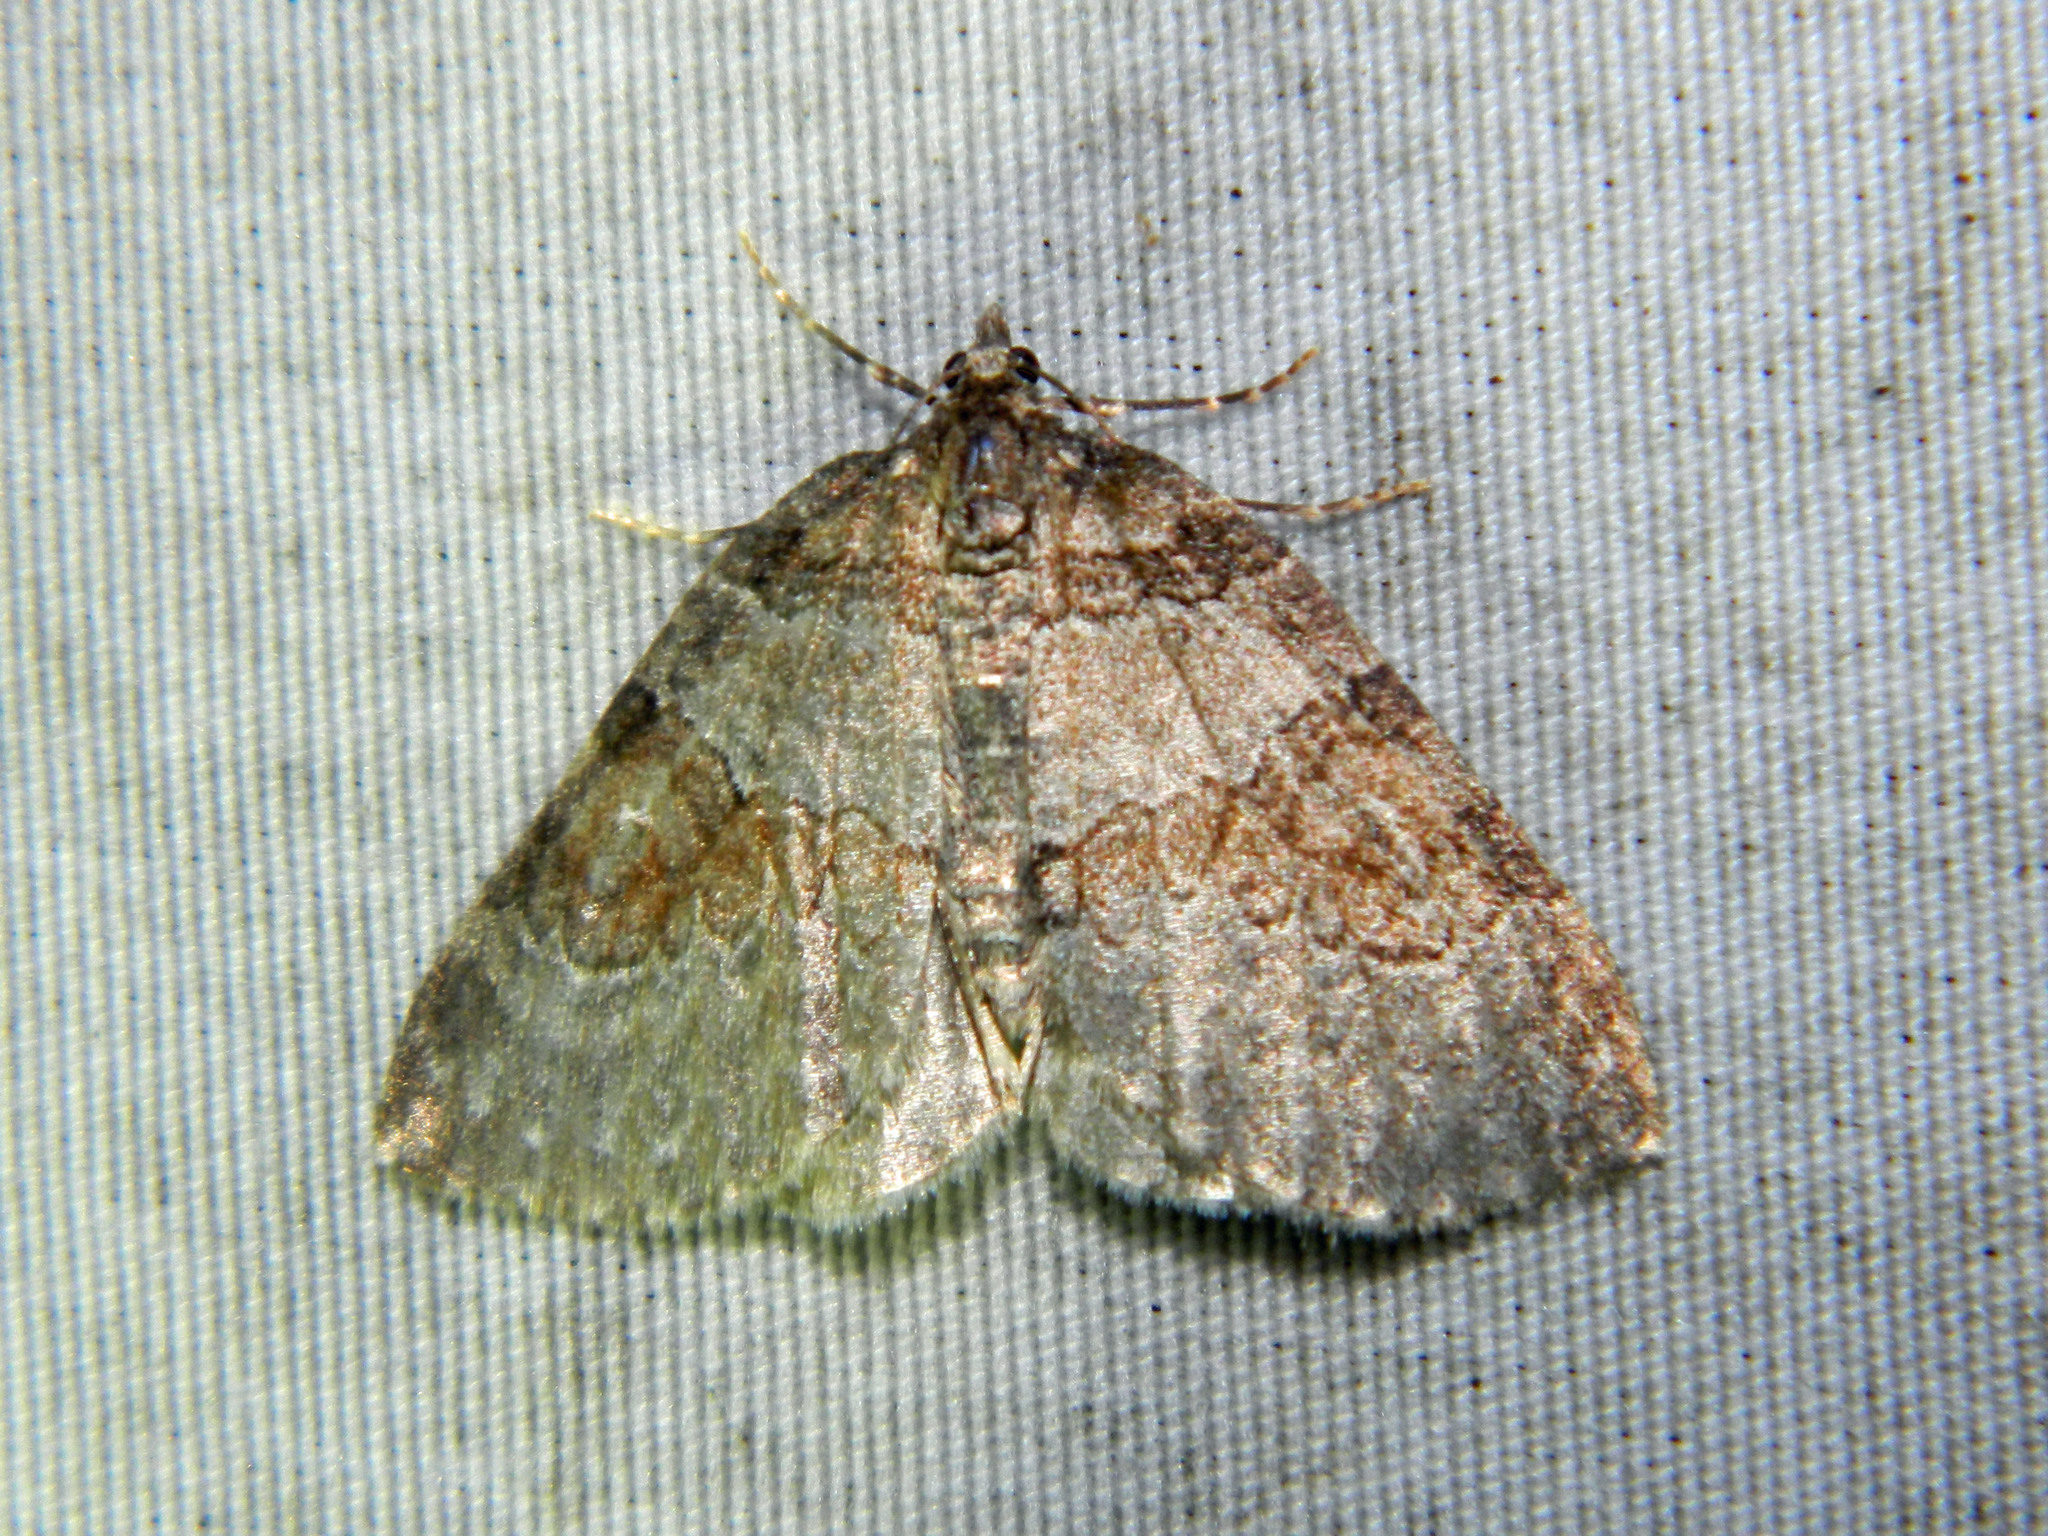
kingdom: Animalia
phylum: Arthropoda
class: Insecta
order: Lepidoptera
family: Geometridae
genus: Plemyria
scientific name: Plemyria georgii
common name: George's carpet moth
